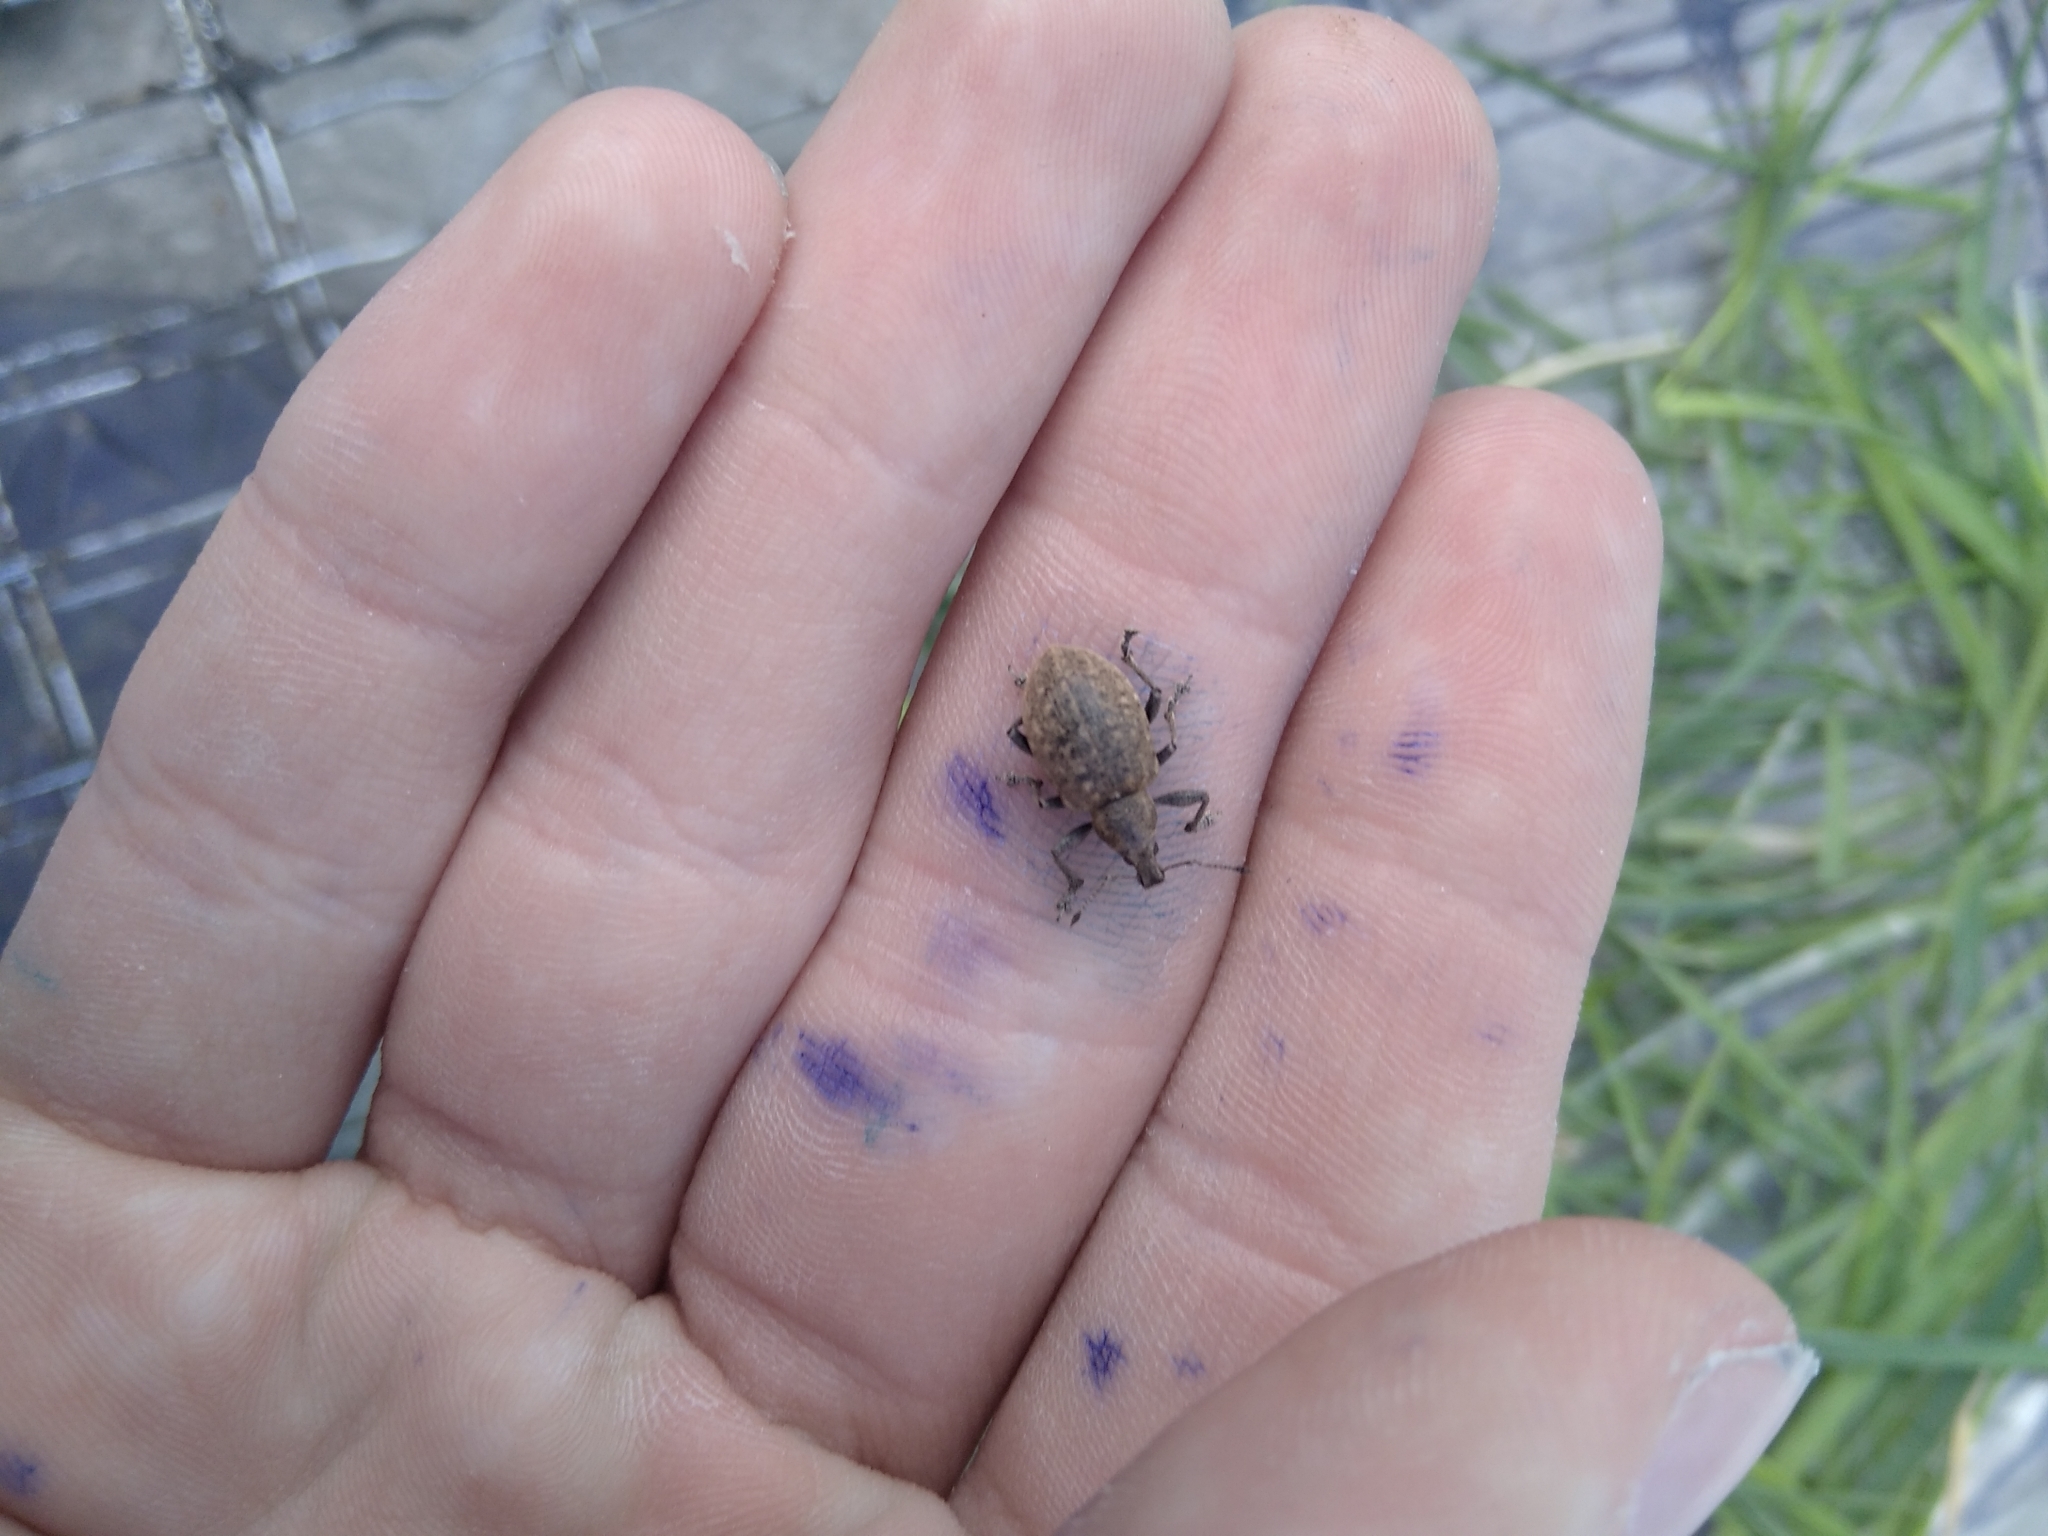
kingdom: Animalia
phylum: Arthropoda
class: Insecta
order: Coleoptera
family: Curculionidae
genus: Liophloeus
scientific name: Liophloeus tessulatus
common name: Weevil
